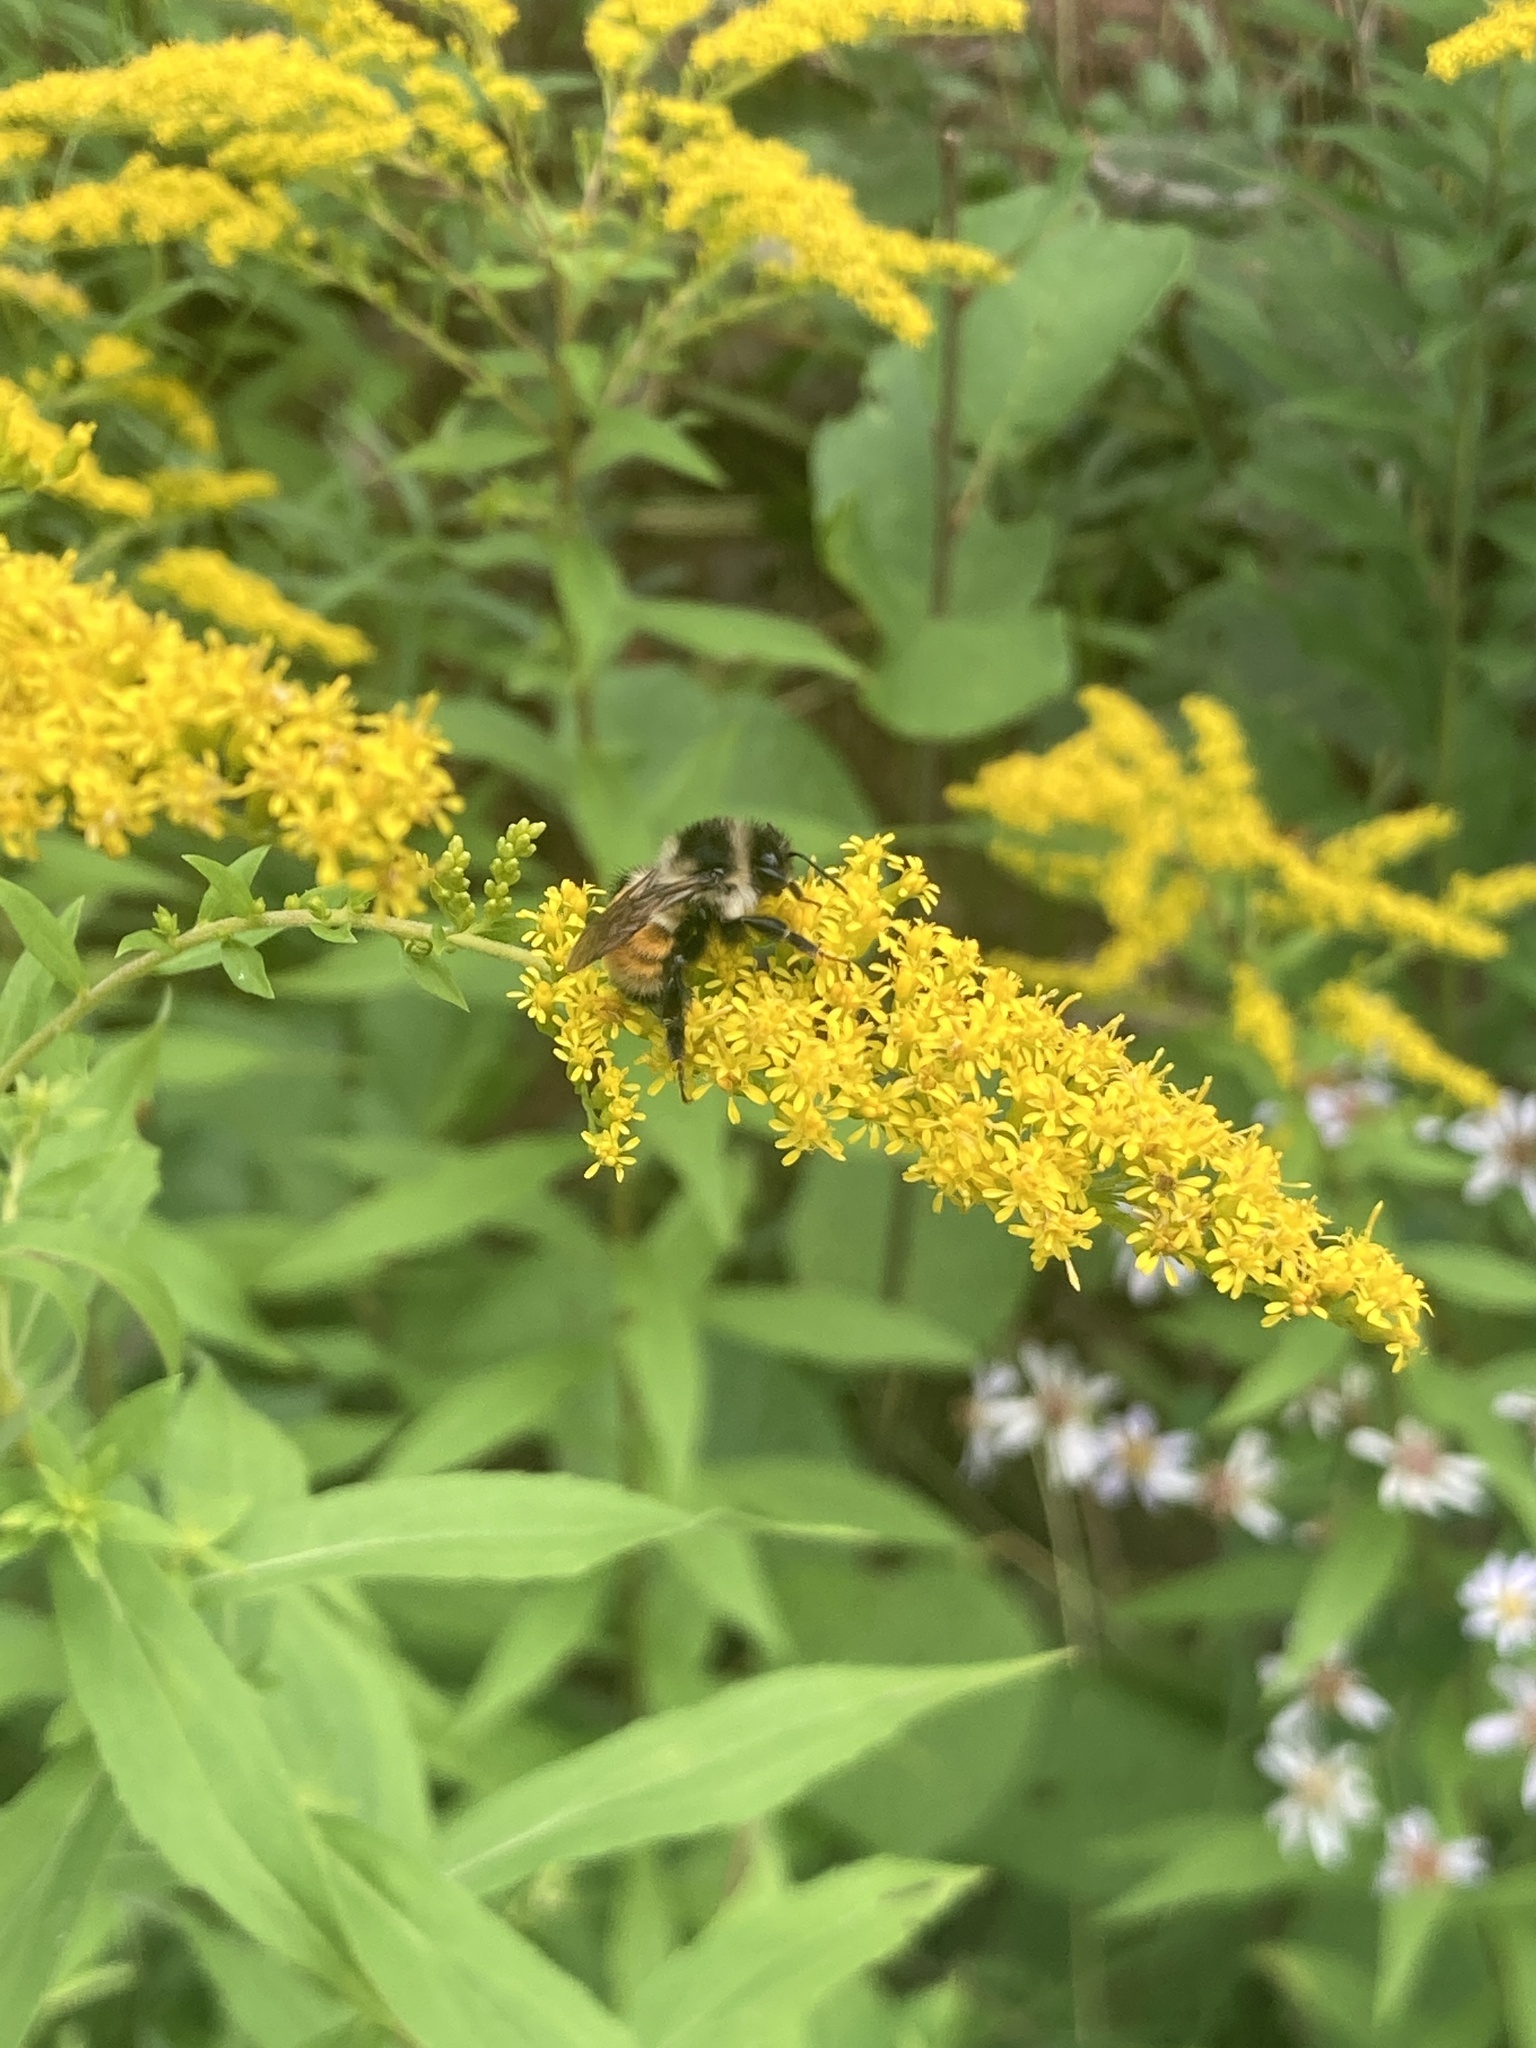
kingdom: Animalia
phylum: Arthropoda
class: Insecta
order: Hymenoptera
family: Apidae
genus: Bombus
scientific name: Bombus ternarius
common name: Tri-colored bumble bee
